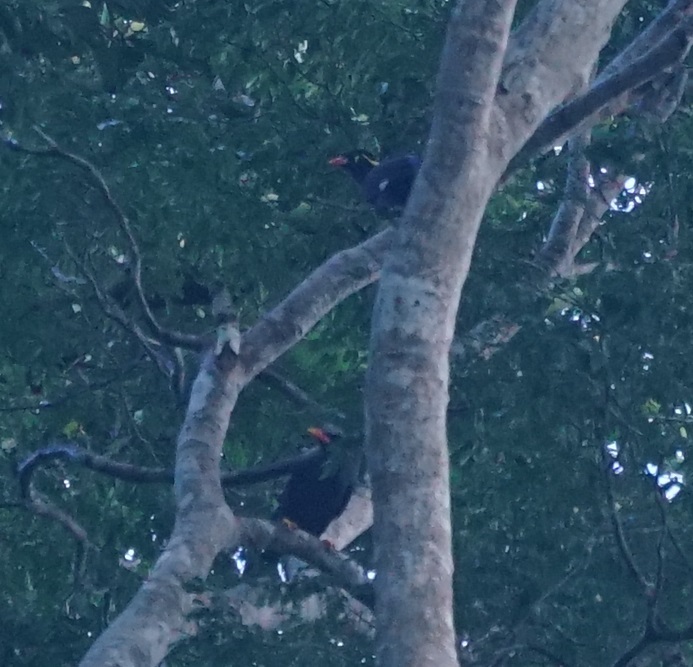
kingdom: Animalia
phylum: Chordata
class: Aves
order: Passeriformes
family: Sturnidae
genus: Gracula
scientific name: Gracula religiosa
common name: Common hill myna
